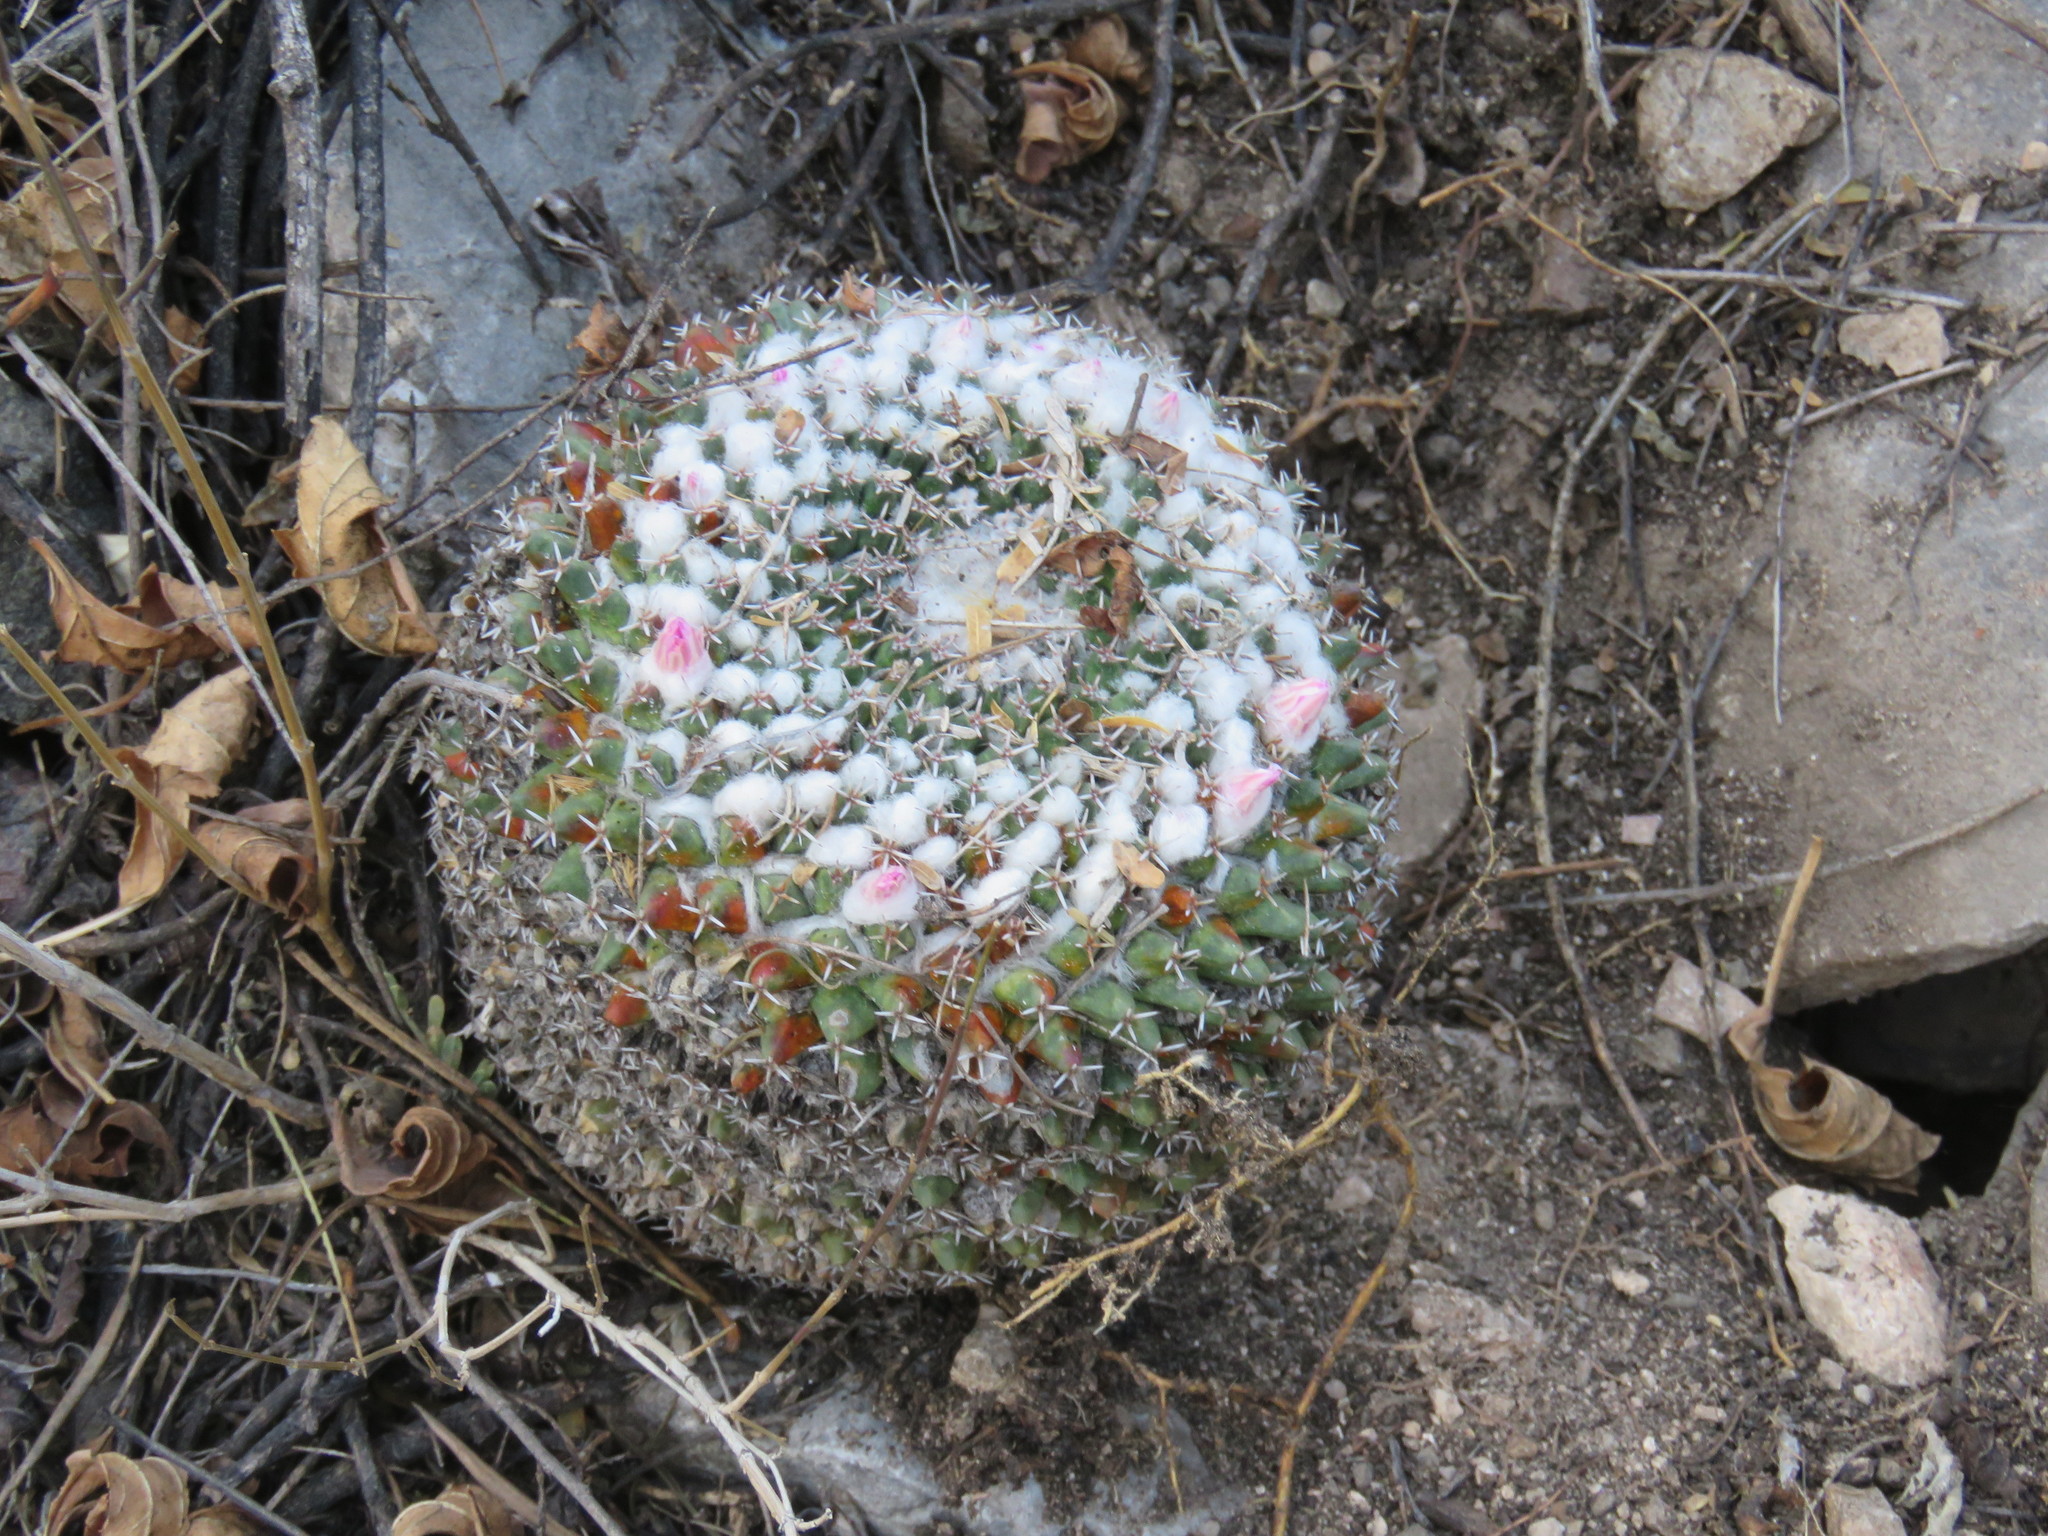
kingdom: Plantae
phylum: Tracheophyta
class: Magnoliopsida
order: Caryophyllales
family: Cactaceae
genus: Mammillaria
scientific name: Mammillaria
